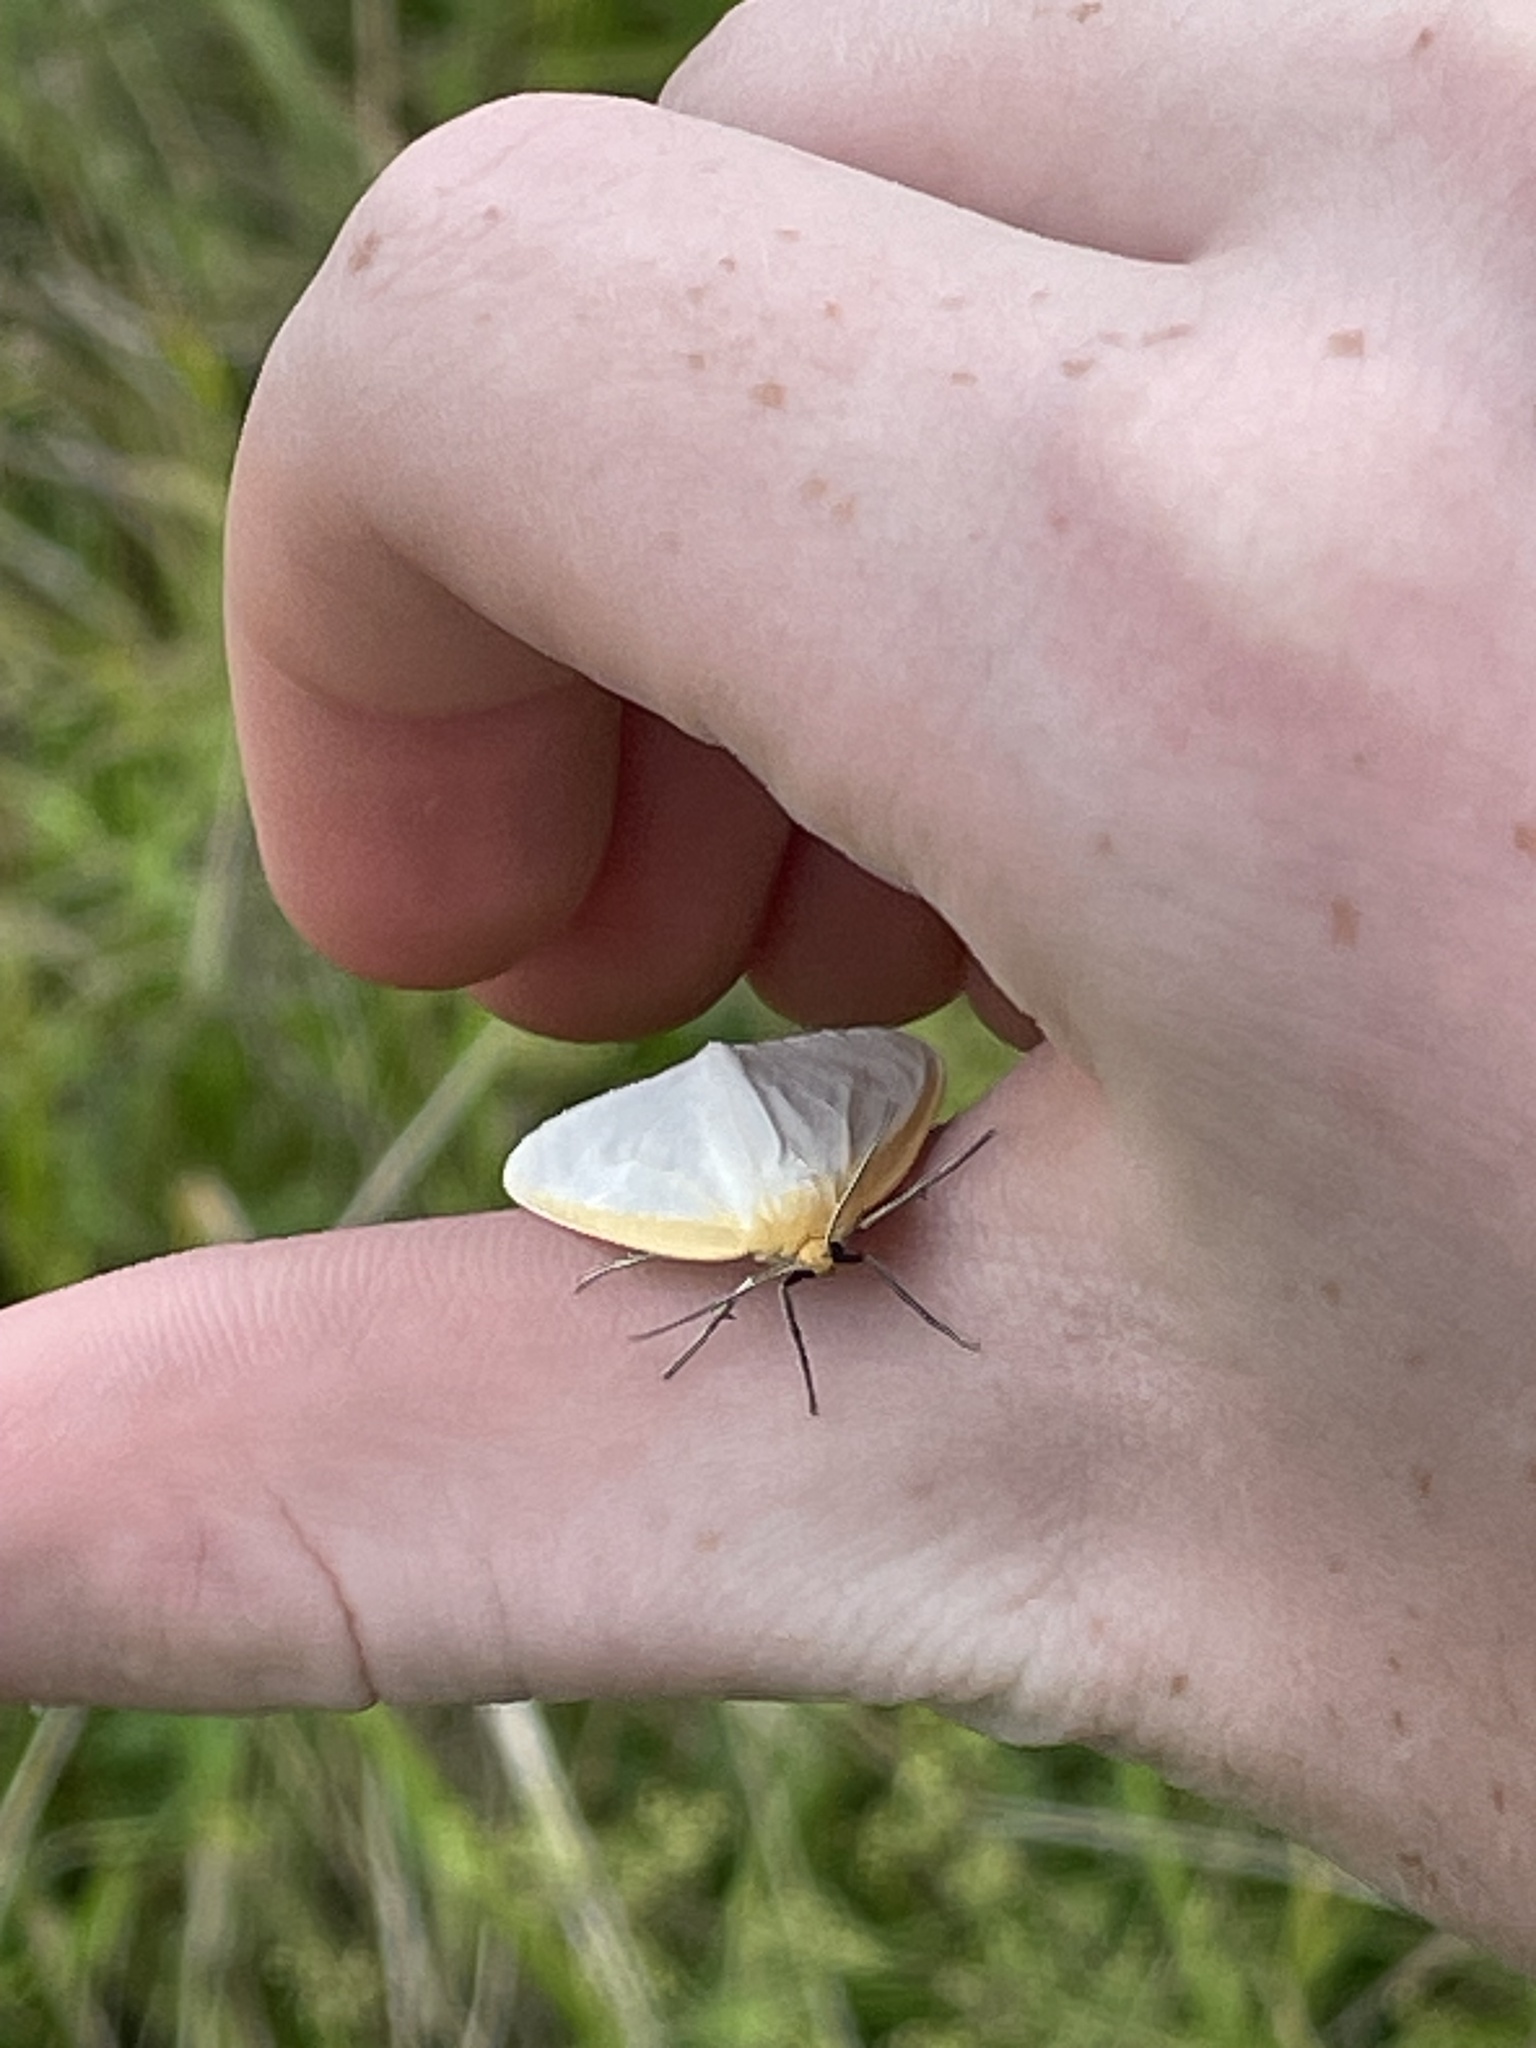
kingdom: Animalia
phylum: Arthropoda
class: Insecta
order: Lepidoptera
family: Erebidae
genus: Cycnia
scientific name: Cycnia tenera
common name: Delicate cycnia moth
